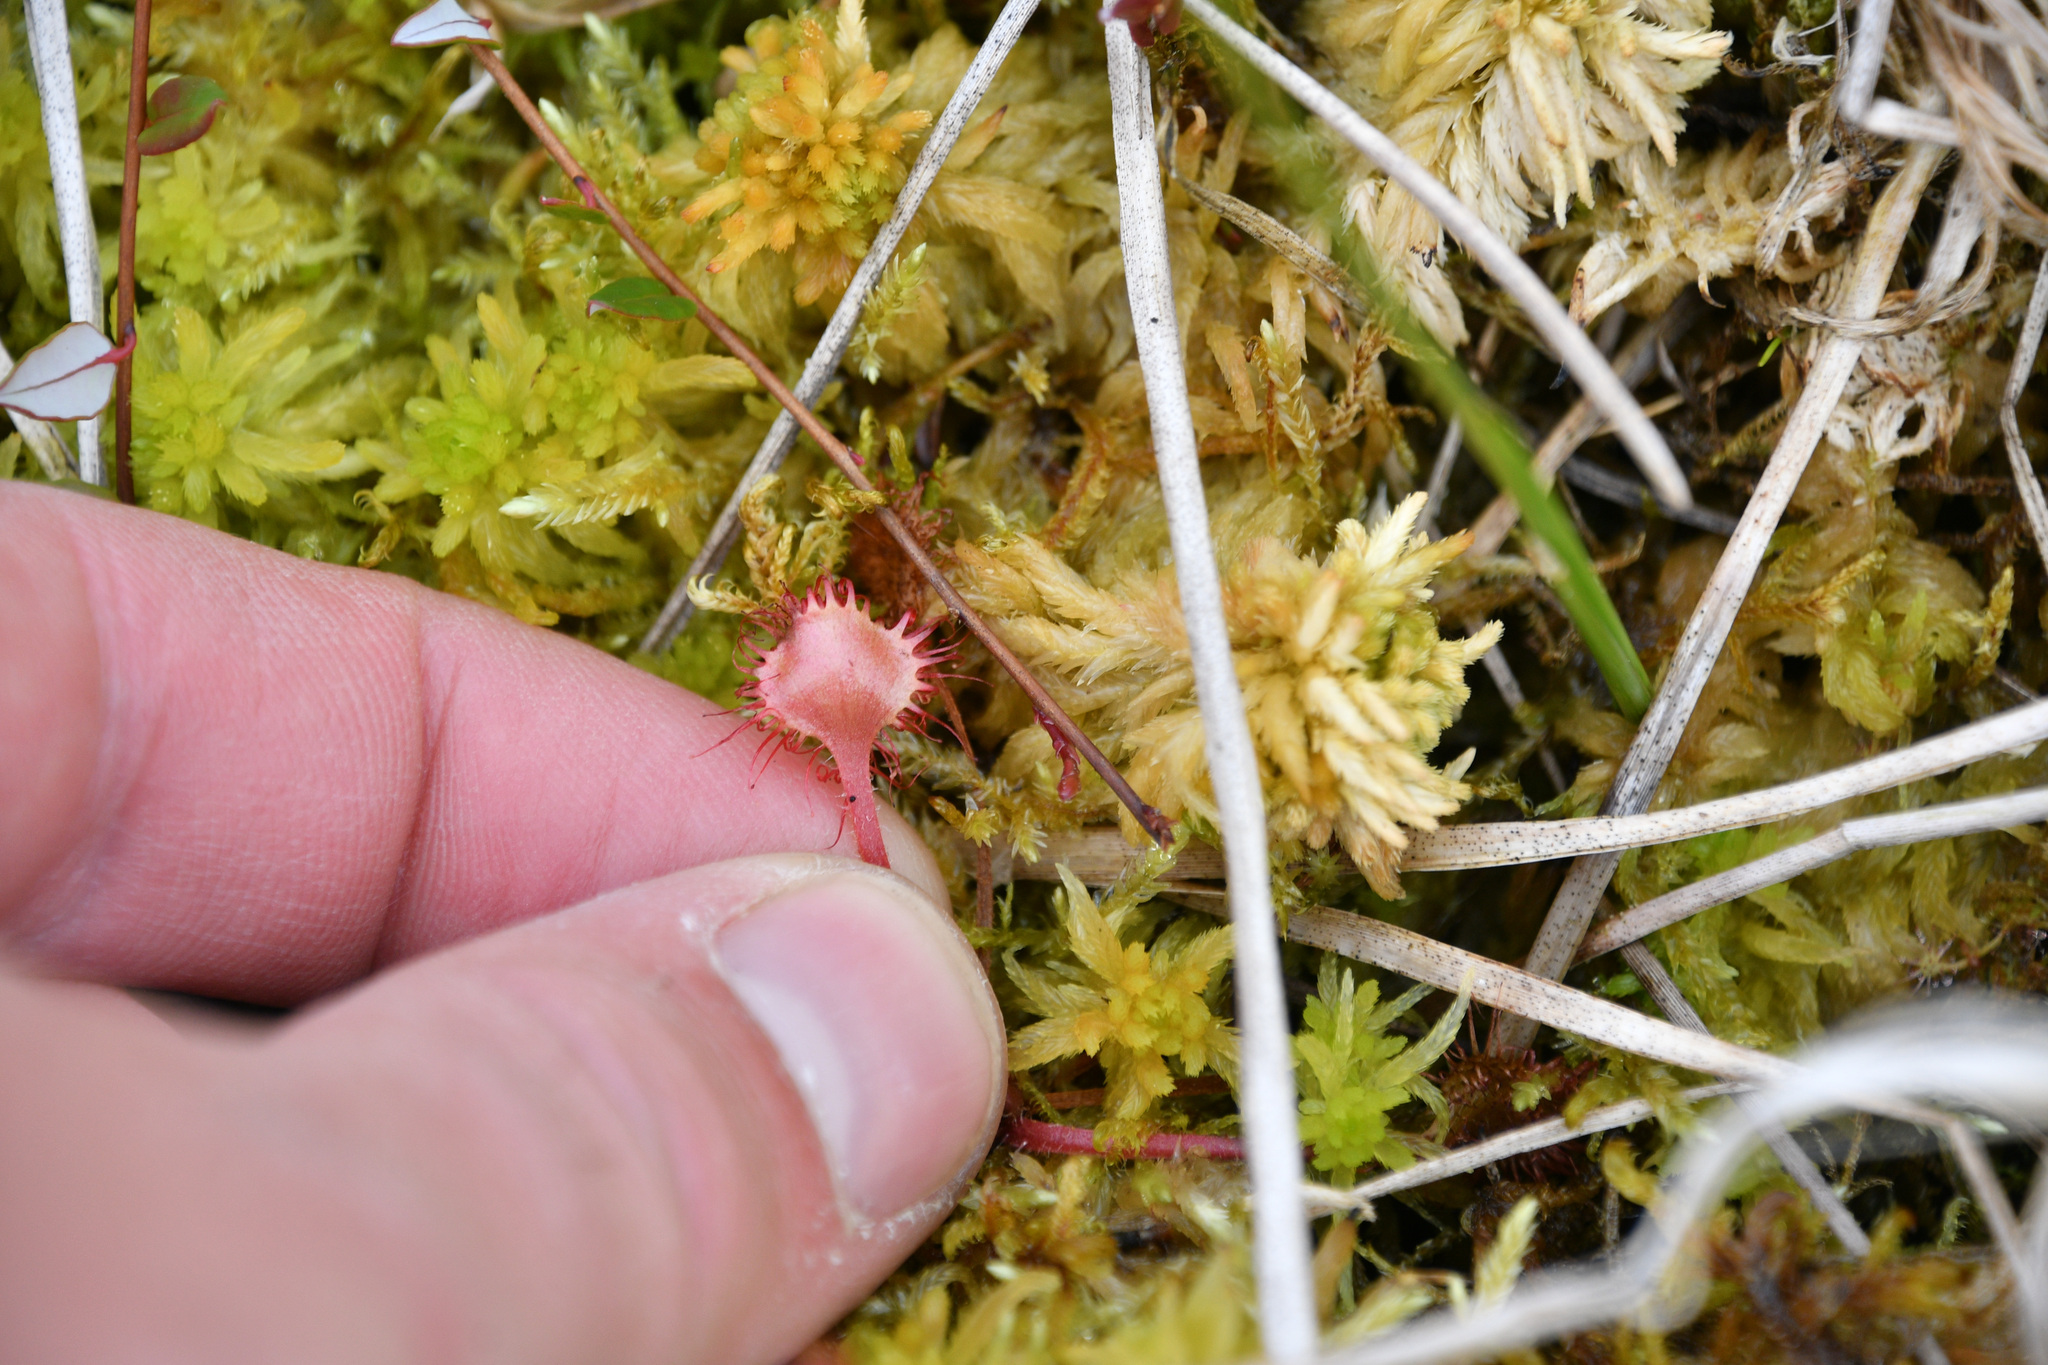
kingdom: Plantae
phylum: Tracheophyta
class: Magnoliopsida
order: Caryophyllales
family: Droseraceae
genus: Drosera
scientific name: Drosera rotundifolia
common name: Round-leaved sundew
